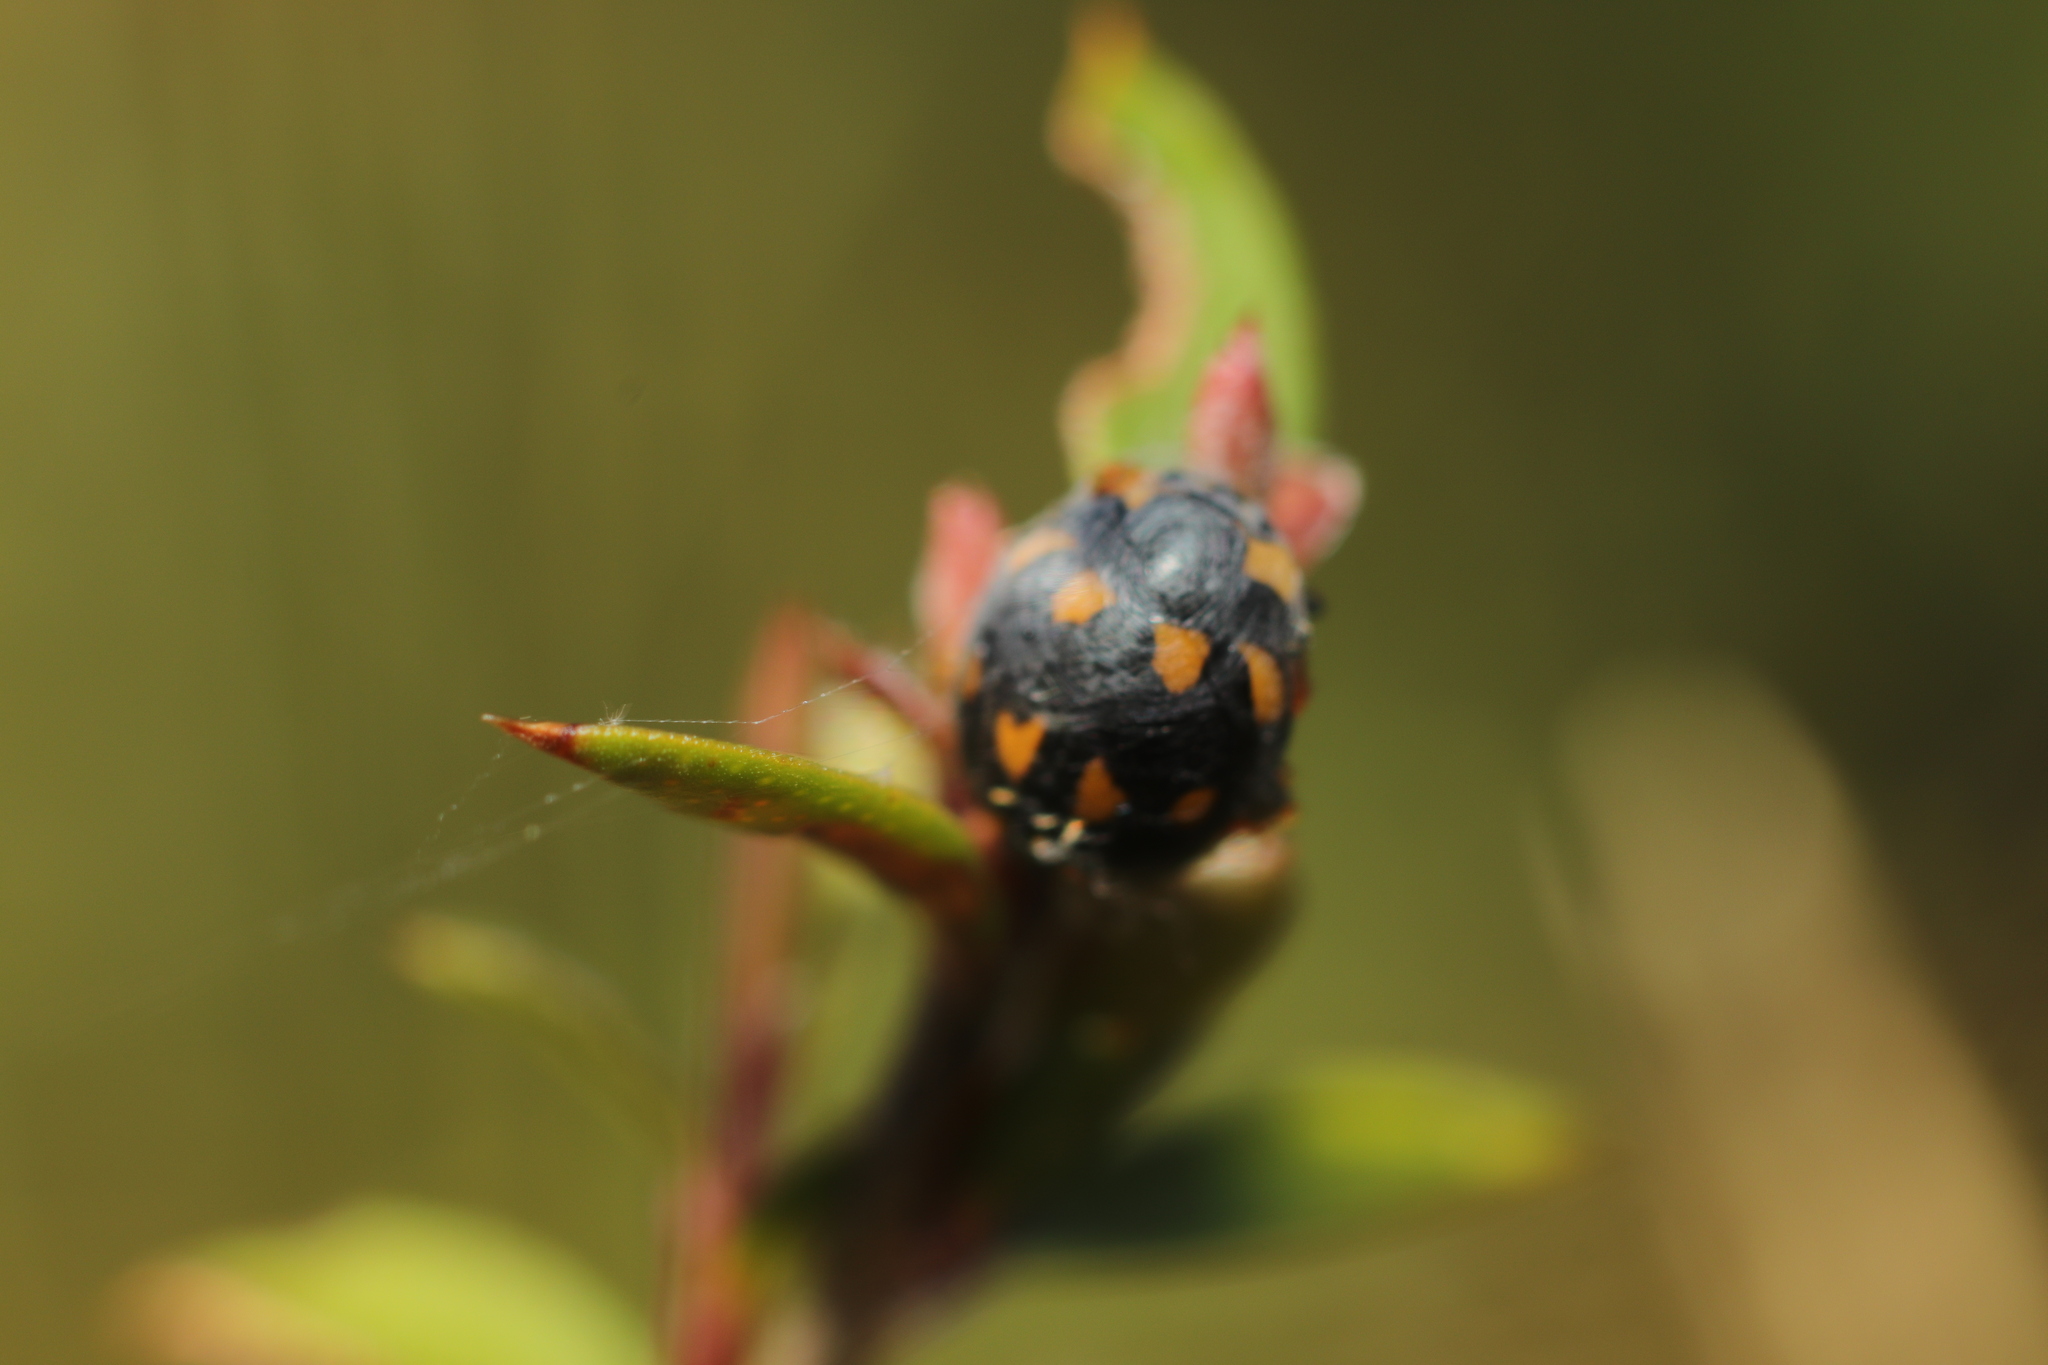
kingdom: Animalia
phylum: Arthropoda
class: Insecta
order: Coleoptera
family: Coccinellidae
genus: Coccinella
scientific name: Coccinella leonina
